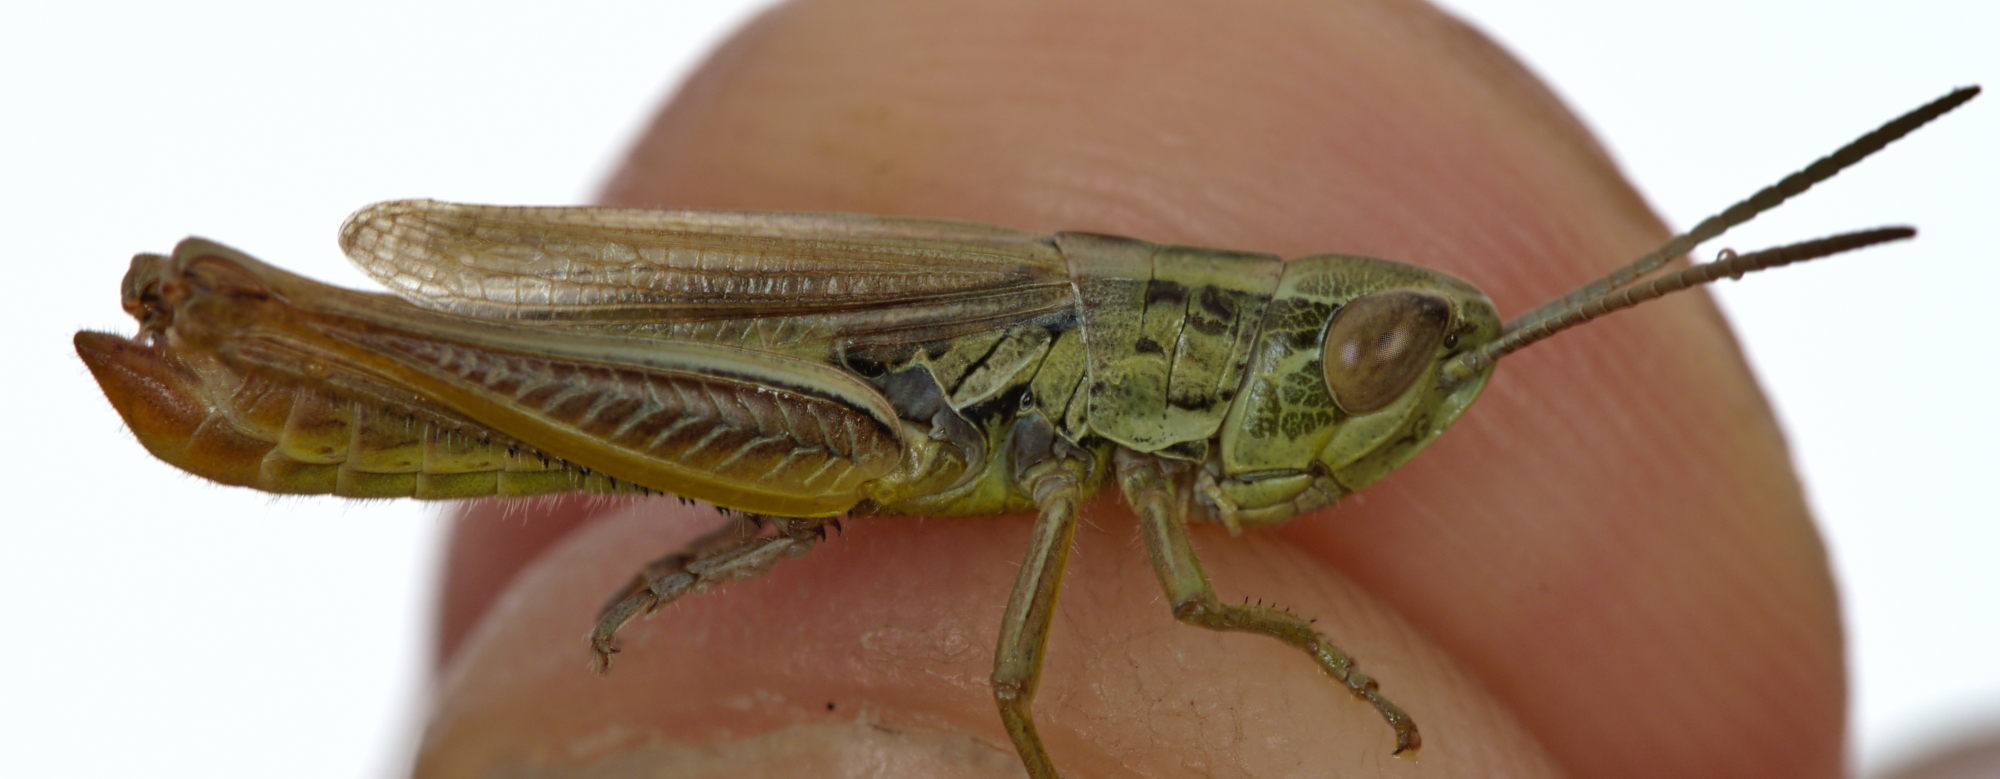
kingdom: Animalia
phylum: Arthropoda
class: Insecta
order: Orthoptera
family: Acrididae
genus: Euchorthippus
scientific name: Euchorthippus declivus
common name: Common straw grasshopper
